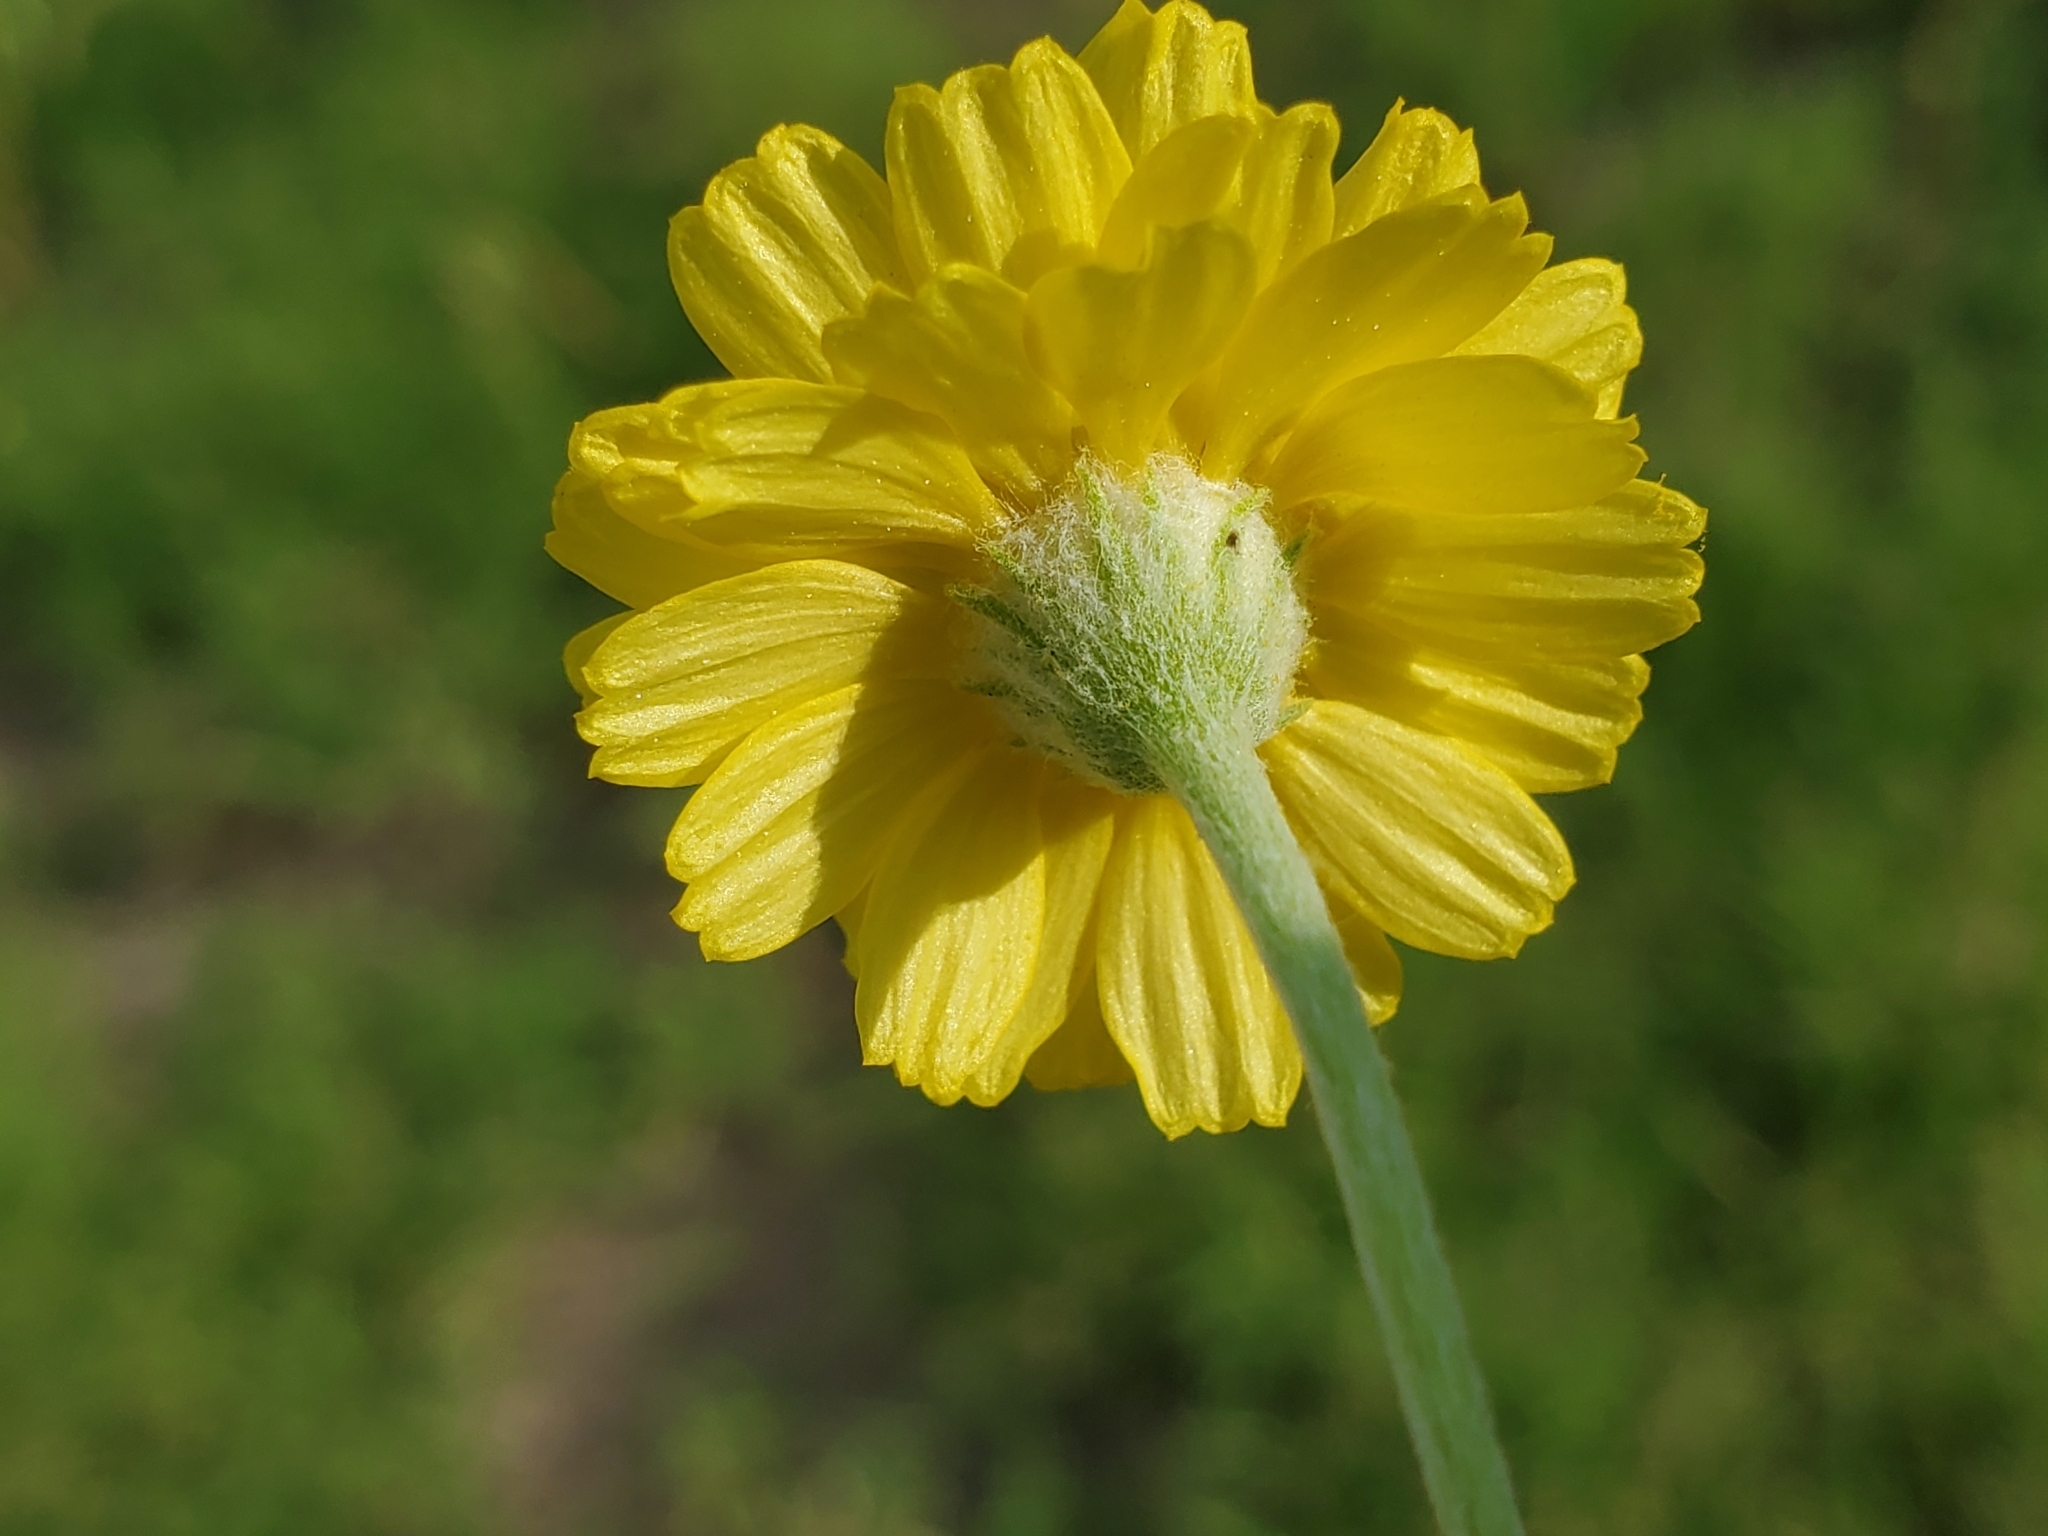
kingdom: Plantae
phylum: Tracheophyta
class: Magnoliopsida
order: Asterales
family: Asteraceae
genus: Baileya
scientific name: Baileya multiradiata
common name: Desert-marigold
